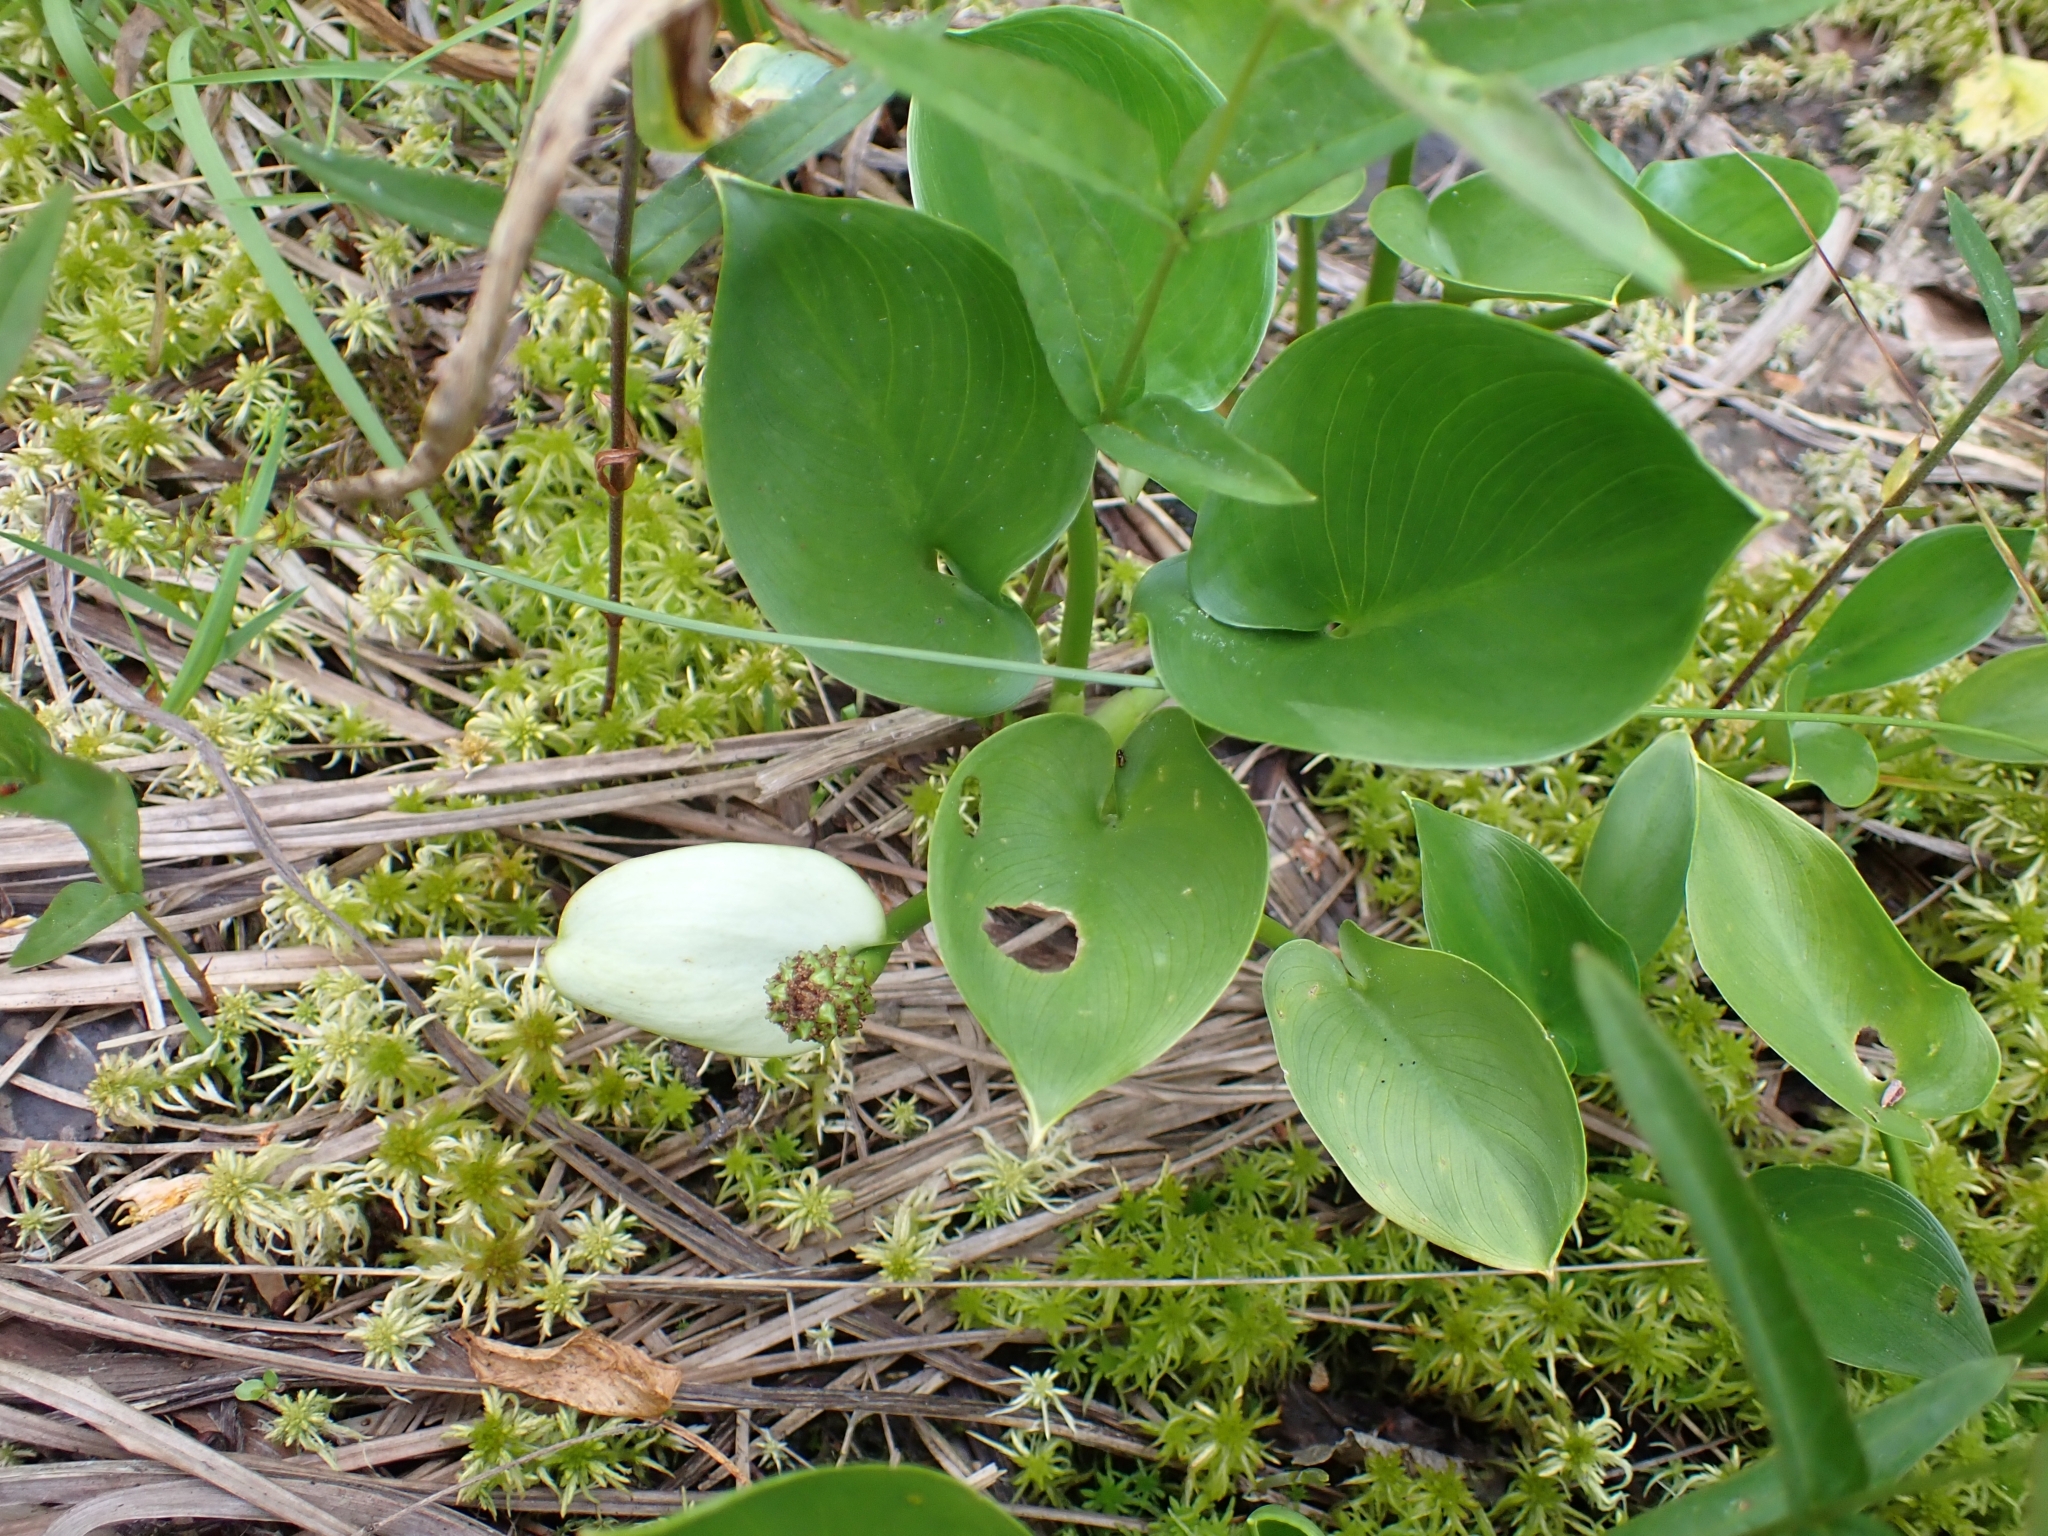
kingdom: Plantae
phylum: Tracheophyta
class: Liliopsida
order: Alismatales
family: Araceae
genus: Calla
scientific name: Calla palustris
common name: Bog arum
